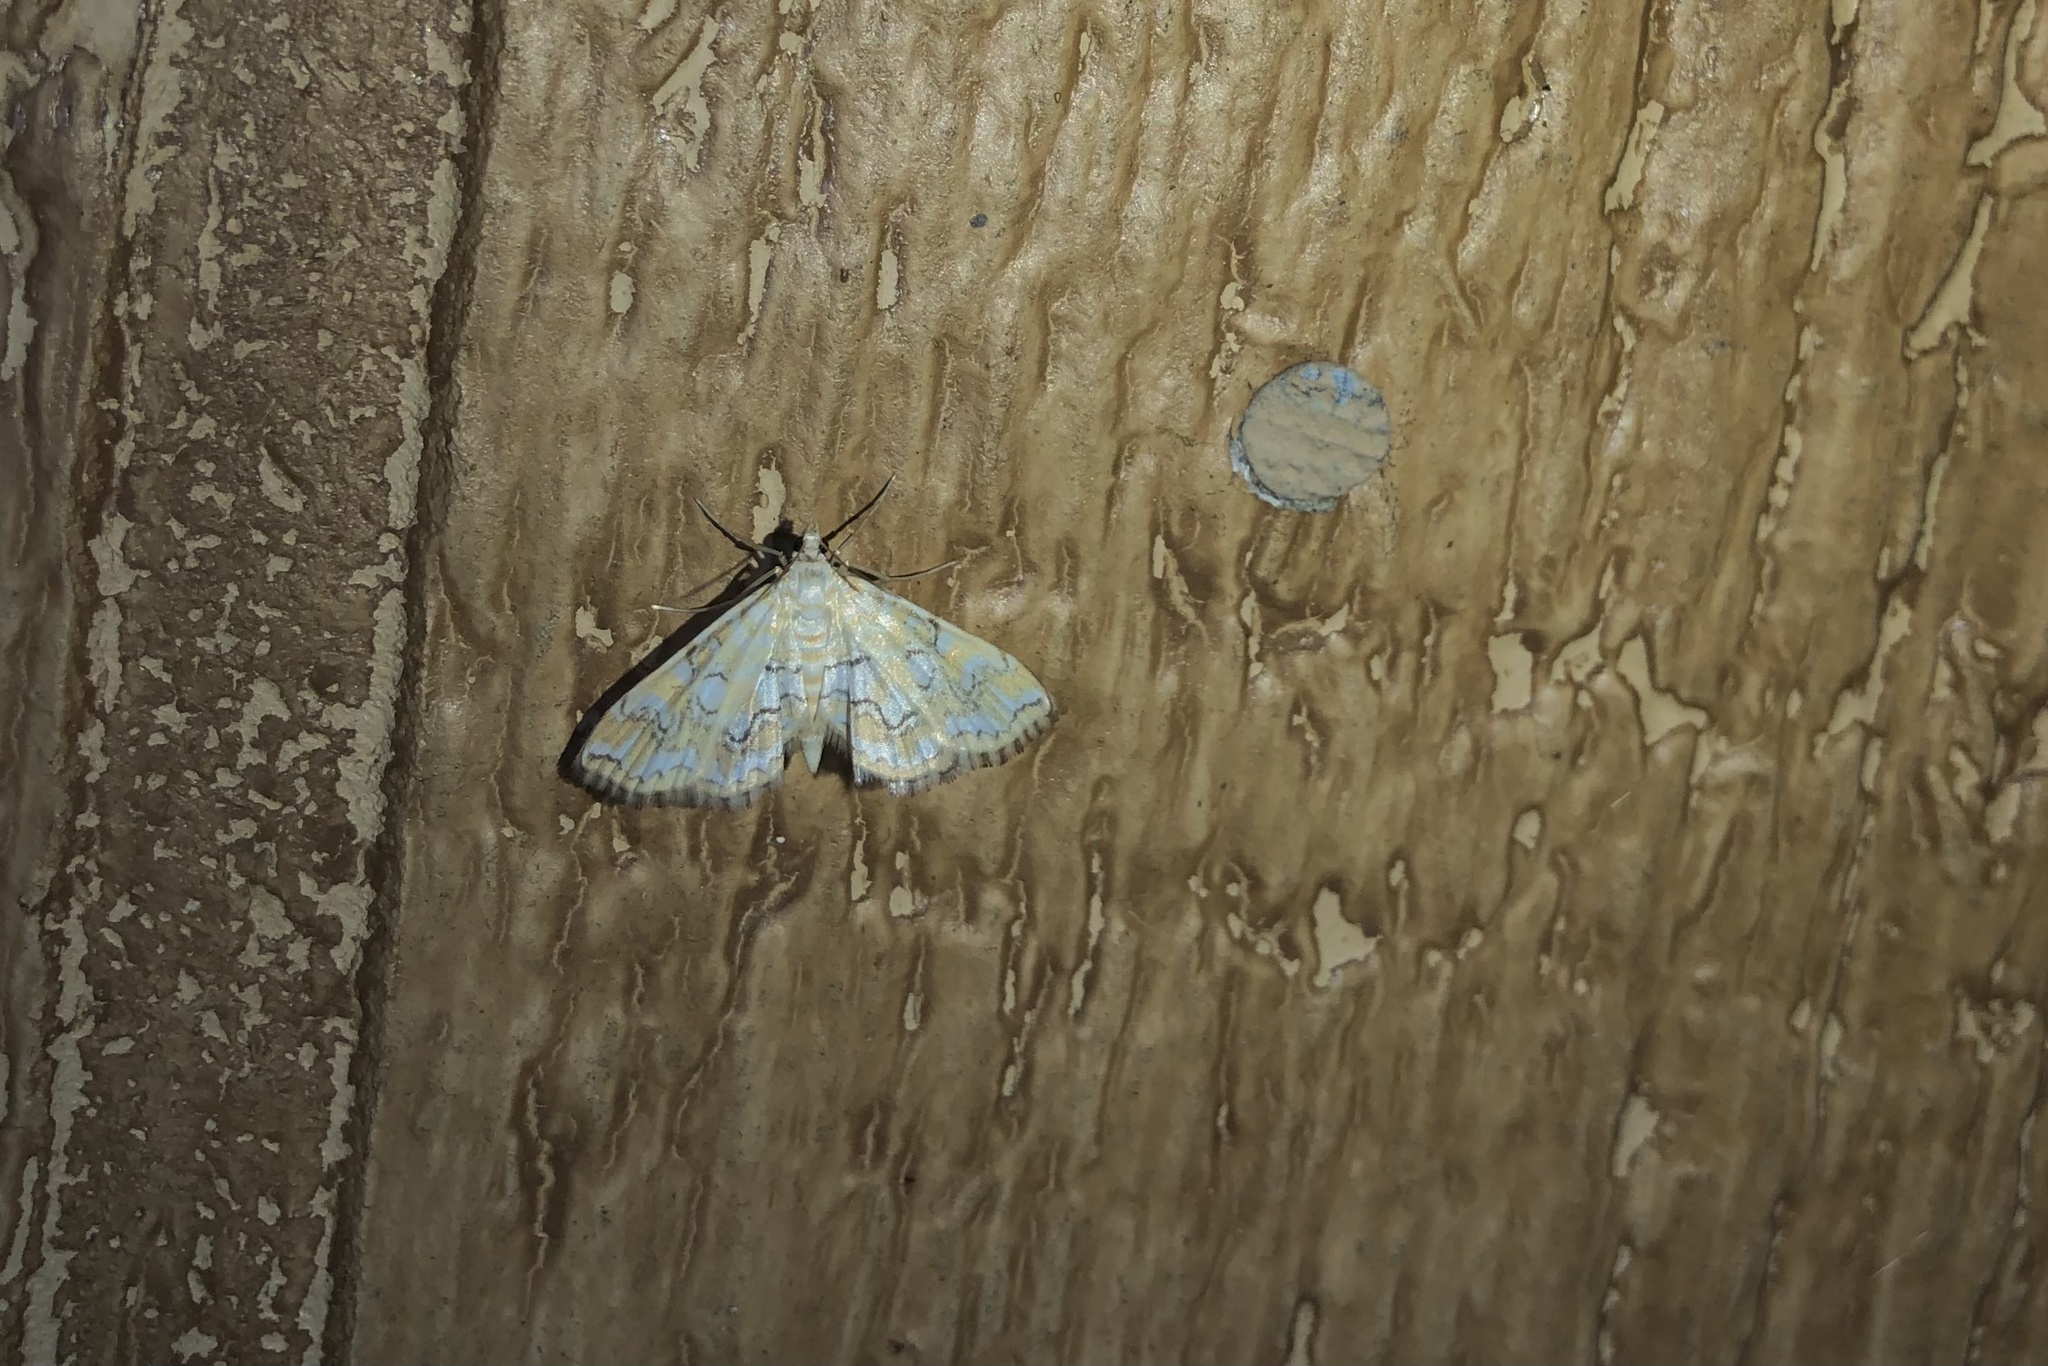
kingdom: Animalia
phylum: Arthropoda
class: Insecta
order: Lepidoptera
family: Crambidae
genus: Elophila
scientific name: Elophila icciusalis
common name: Pondside pyralid moth
